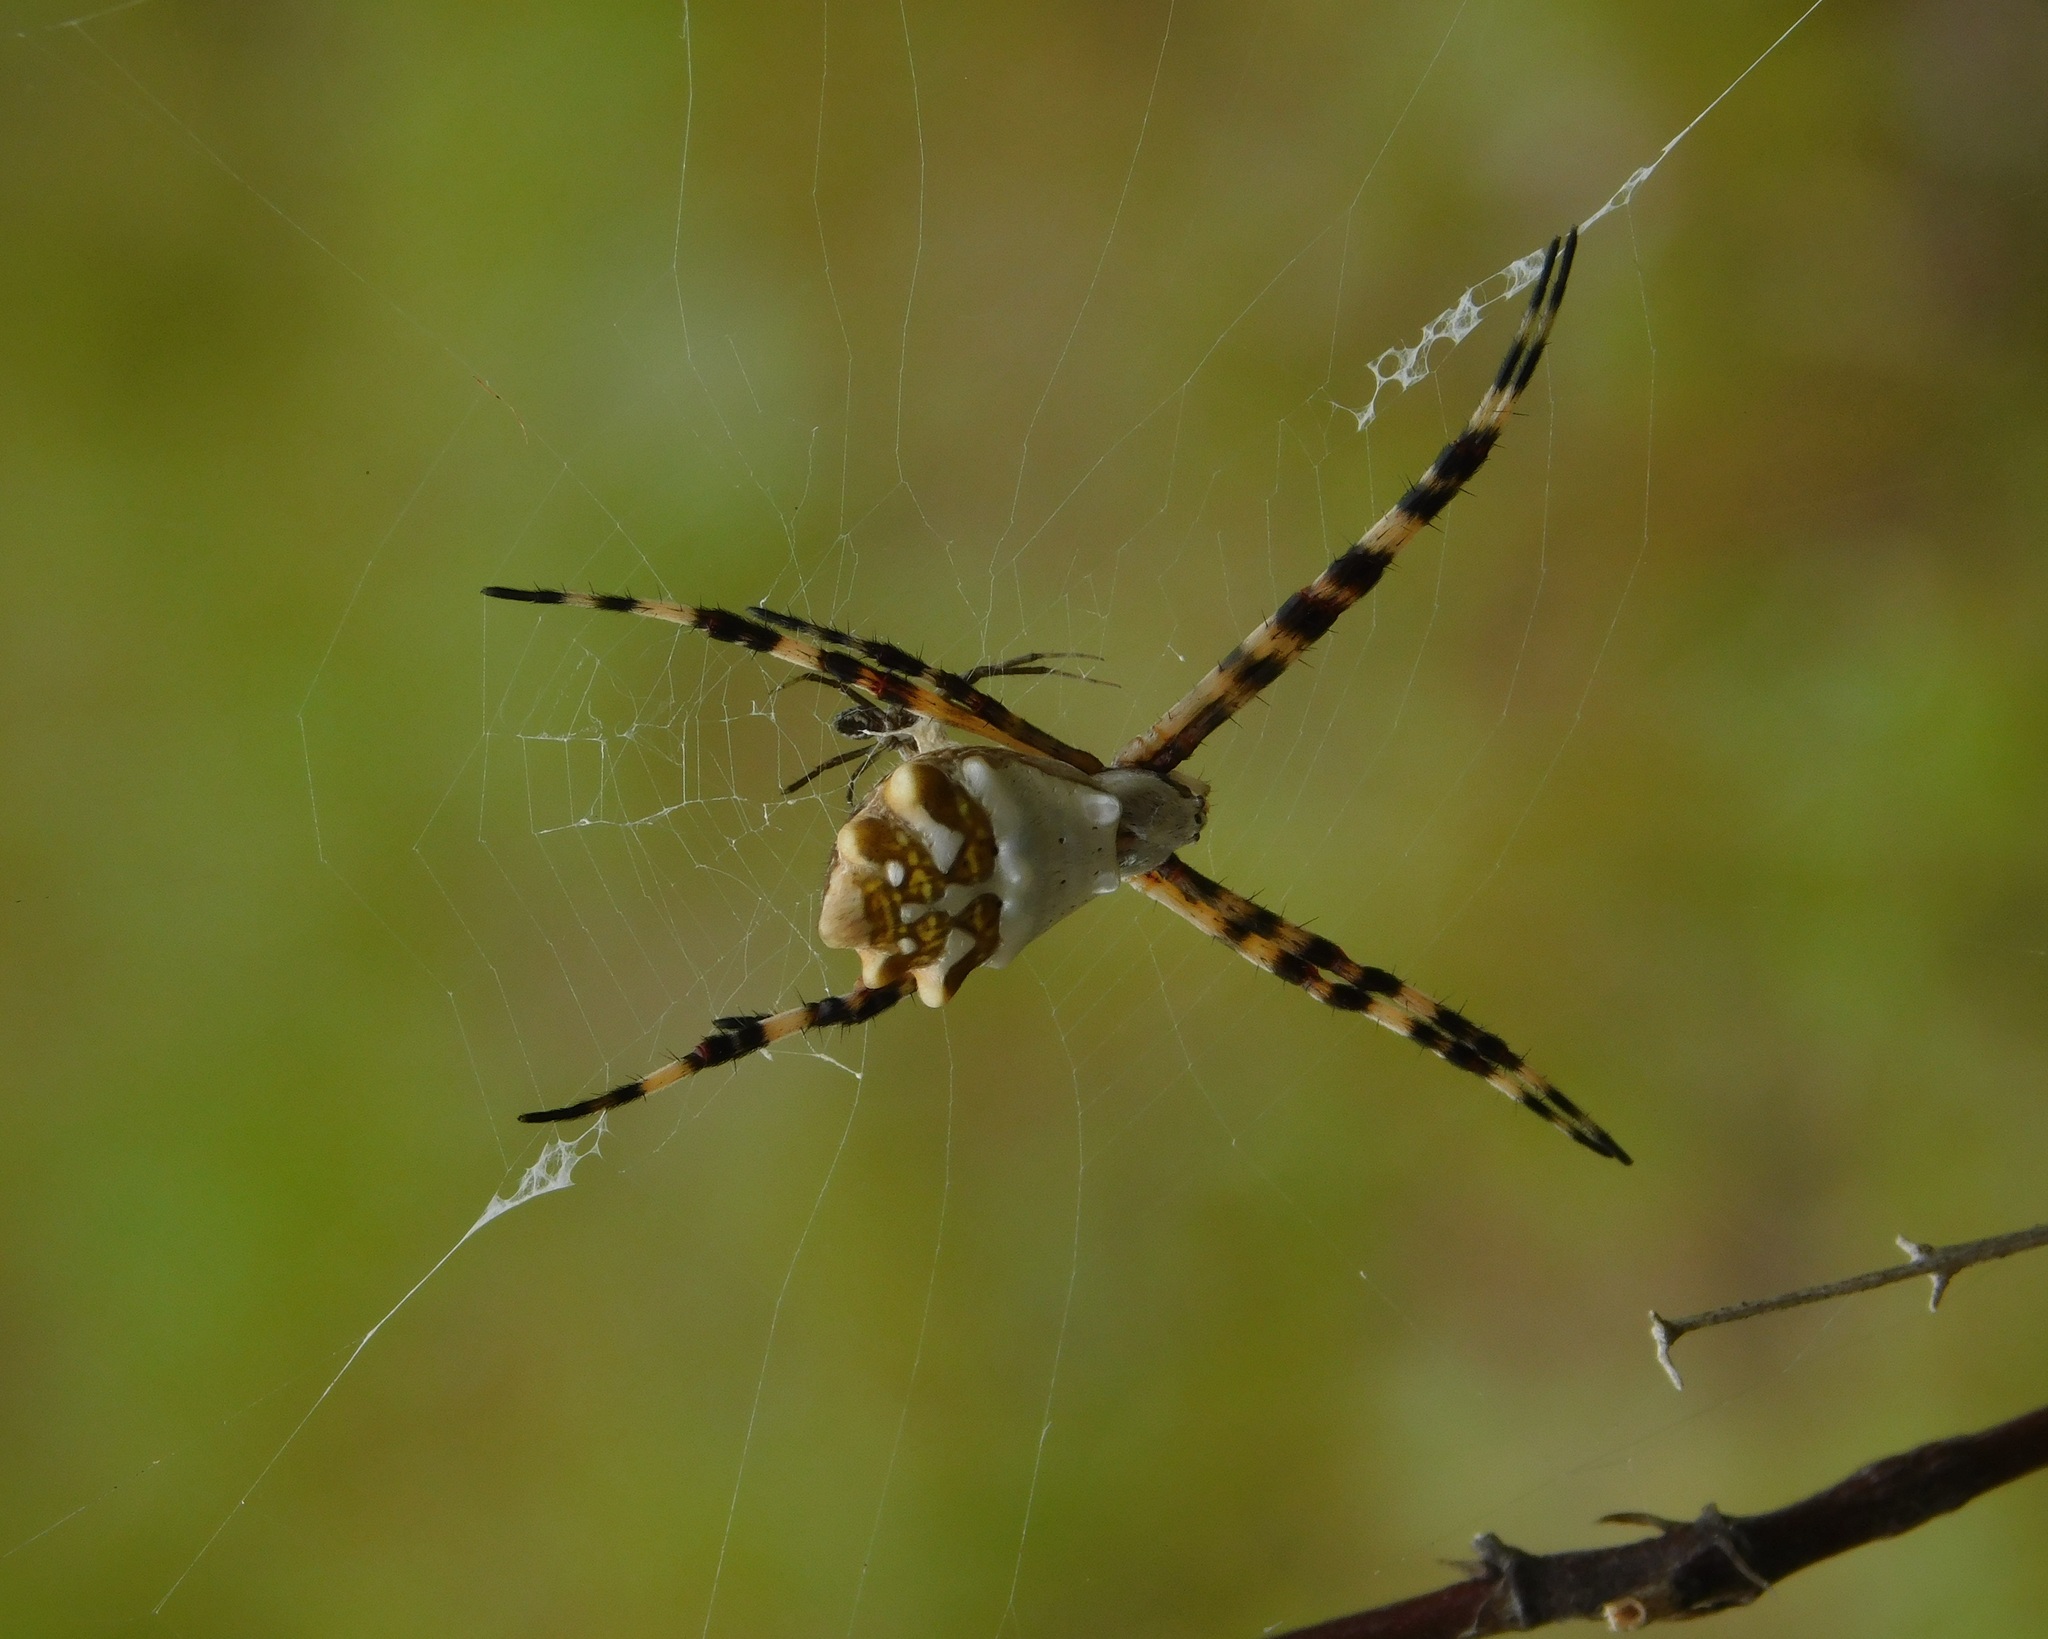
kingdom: Animalia
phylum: Arthropoda
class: Arachnida
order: Araneae
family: Araneidae
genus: Argiope
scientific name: Argiope argentata
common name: Orb weavers
